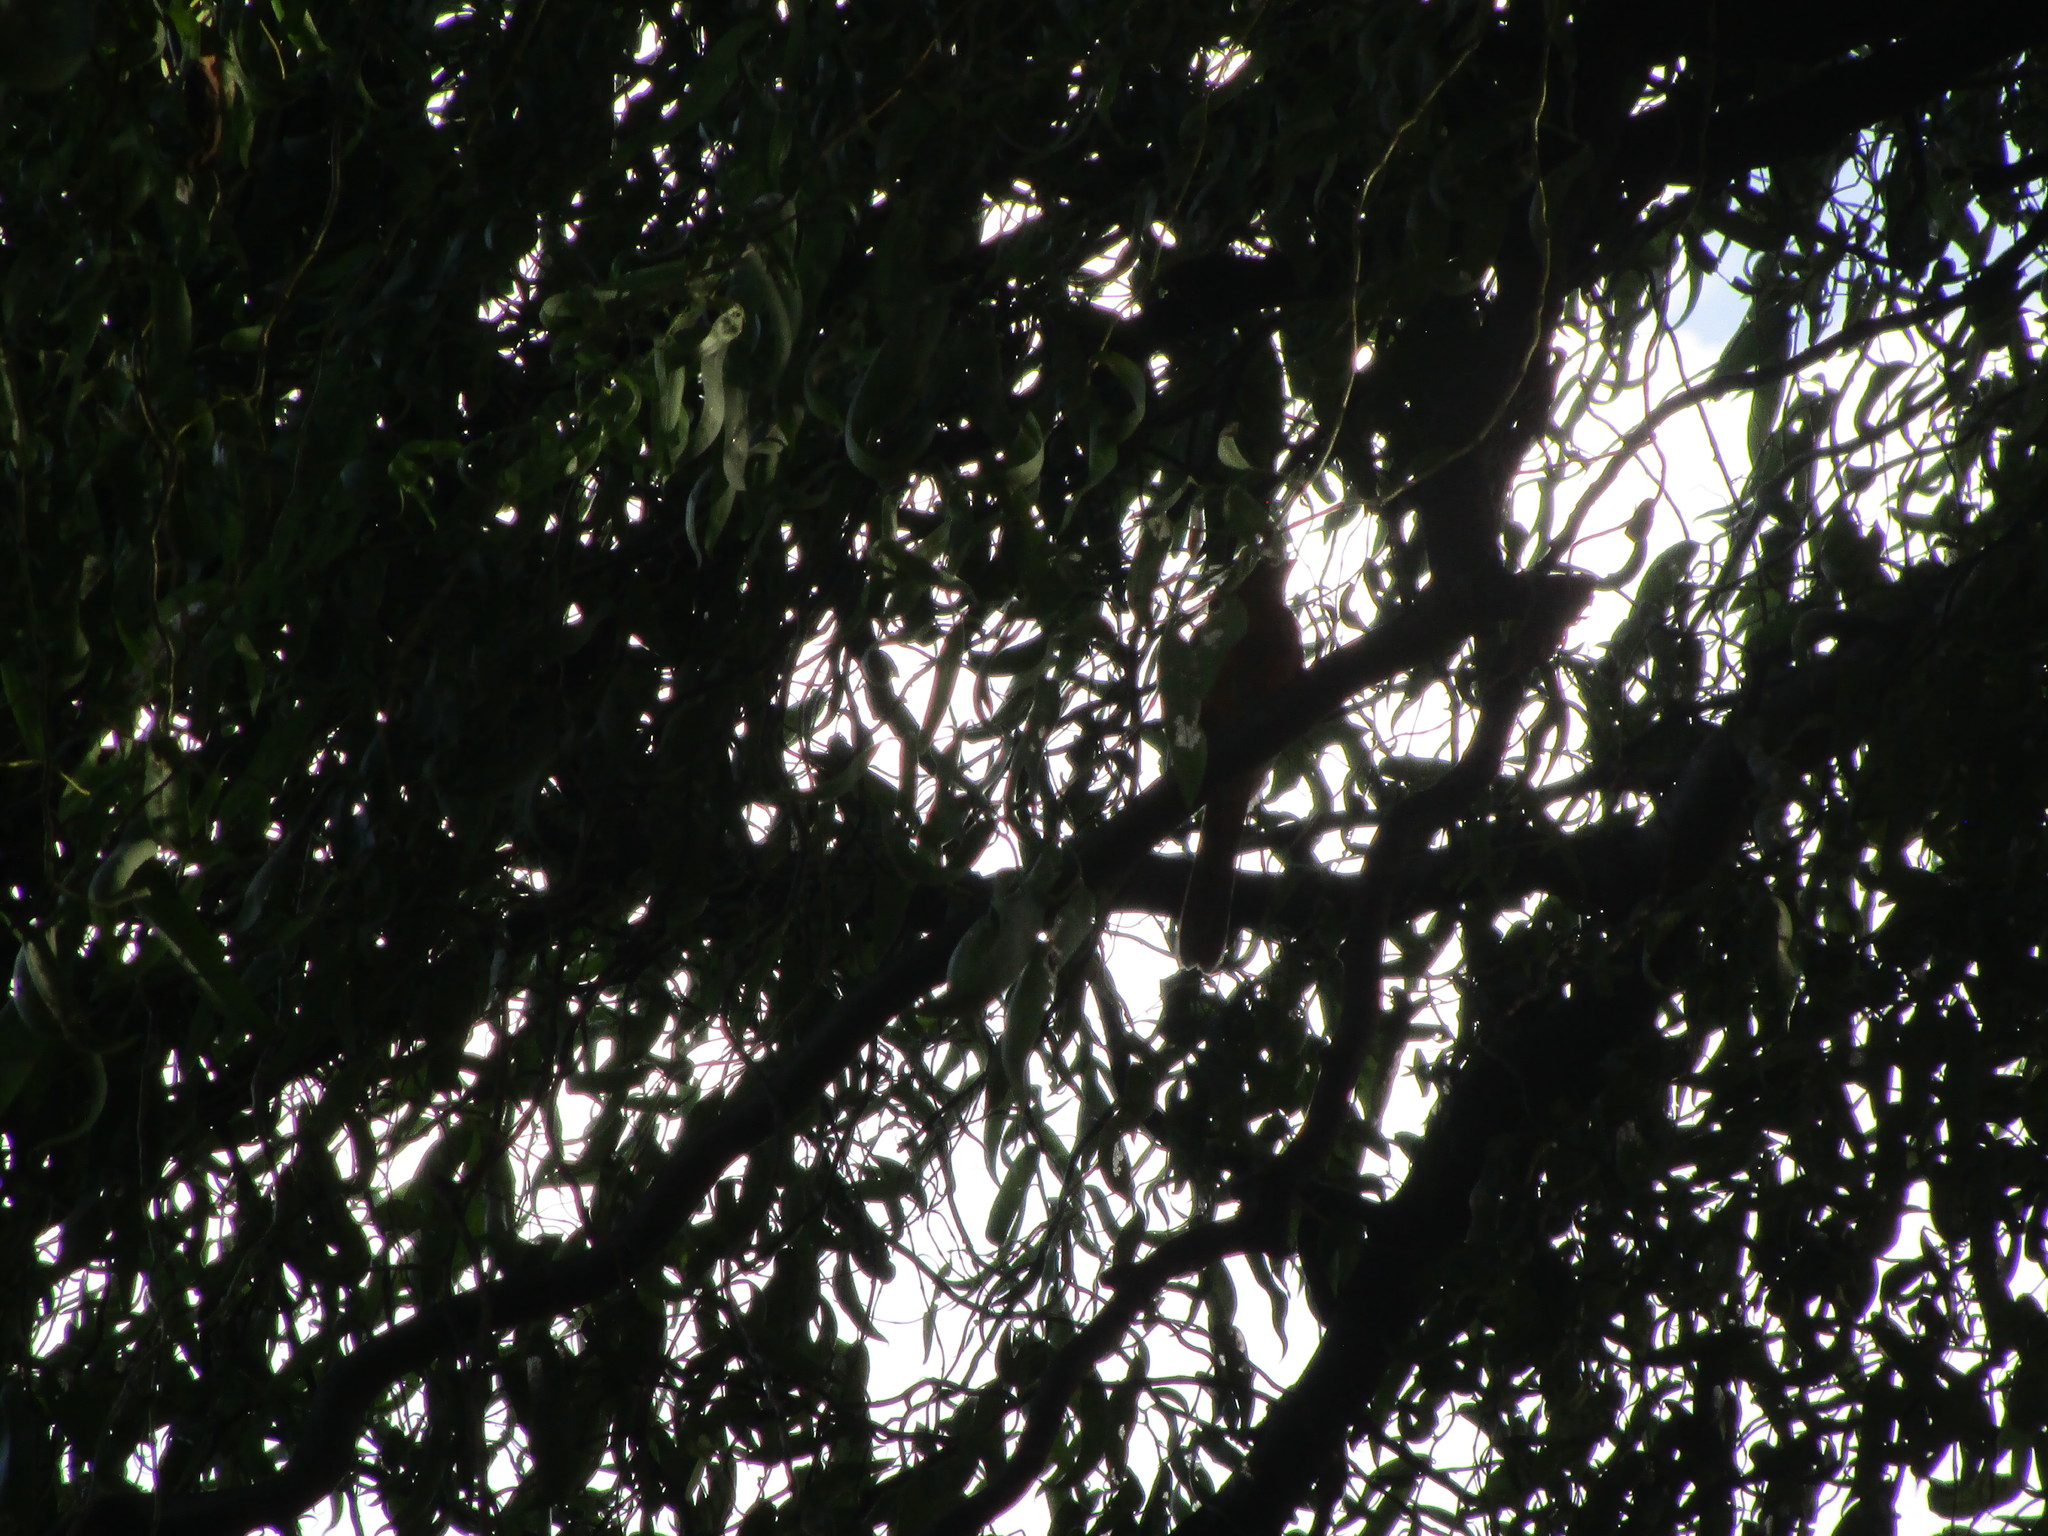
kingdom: Animalia
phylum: Chordata
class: Aves
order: Passeriformes
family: Cardinalidae
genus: Cardinalis
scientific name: Cardinalis cardinalis
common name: Northern cardinal
